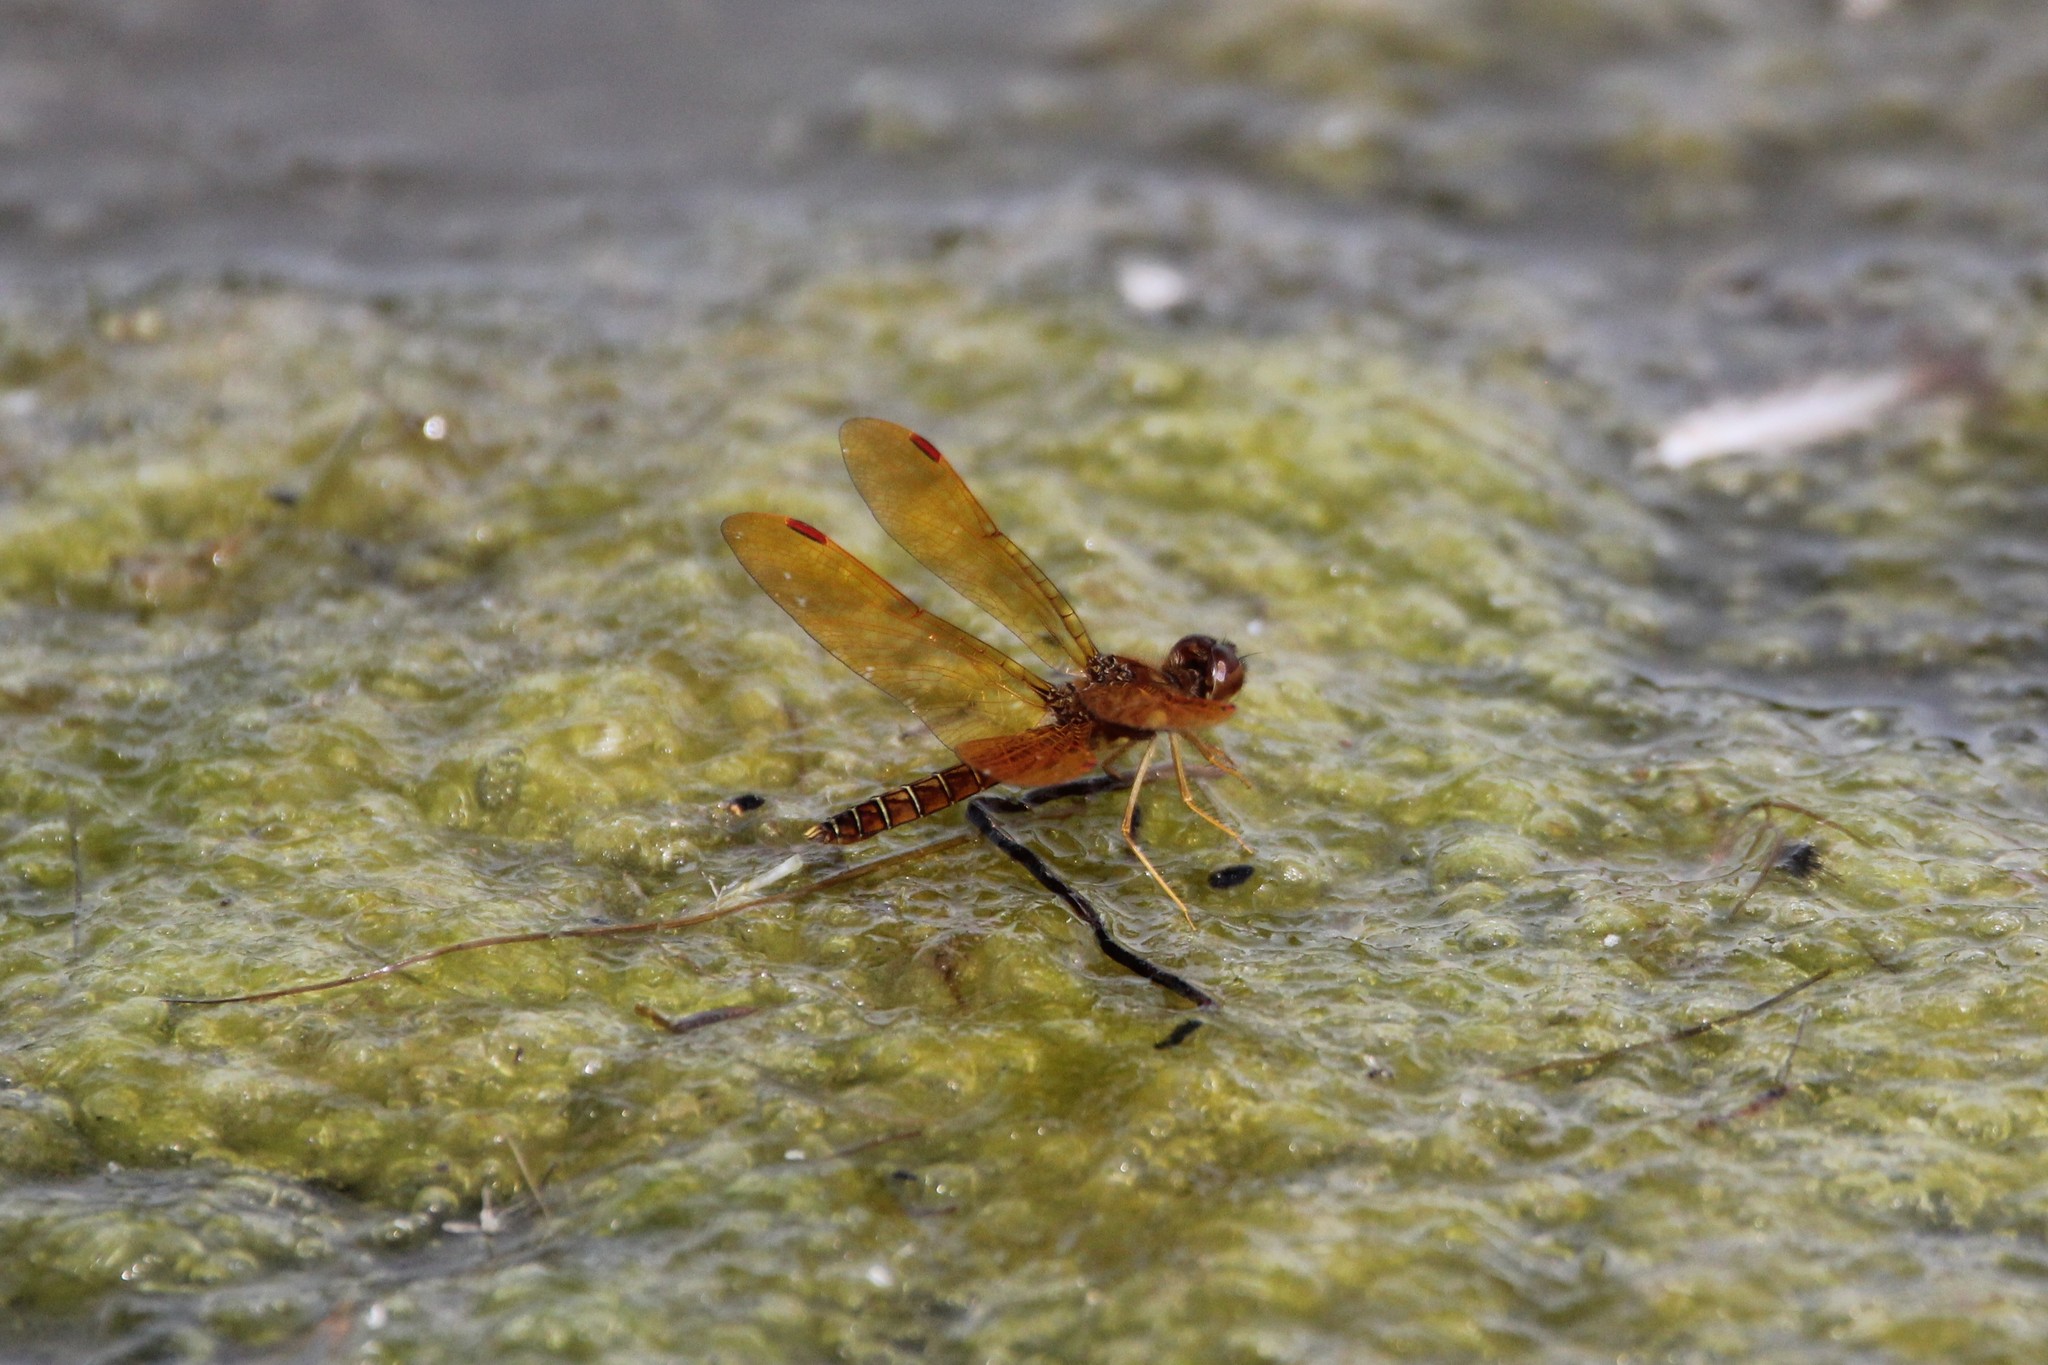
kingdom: Animalia
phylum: Arthropoda
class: Insecta
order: Odonata
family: Libellulidae
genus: Perithemis
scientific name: Perithemis tenera
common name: Eastern amberwing
